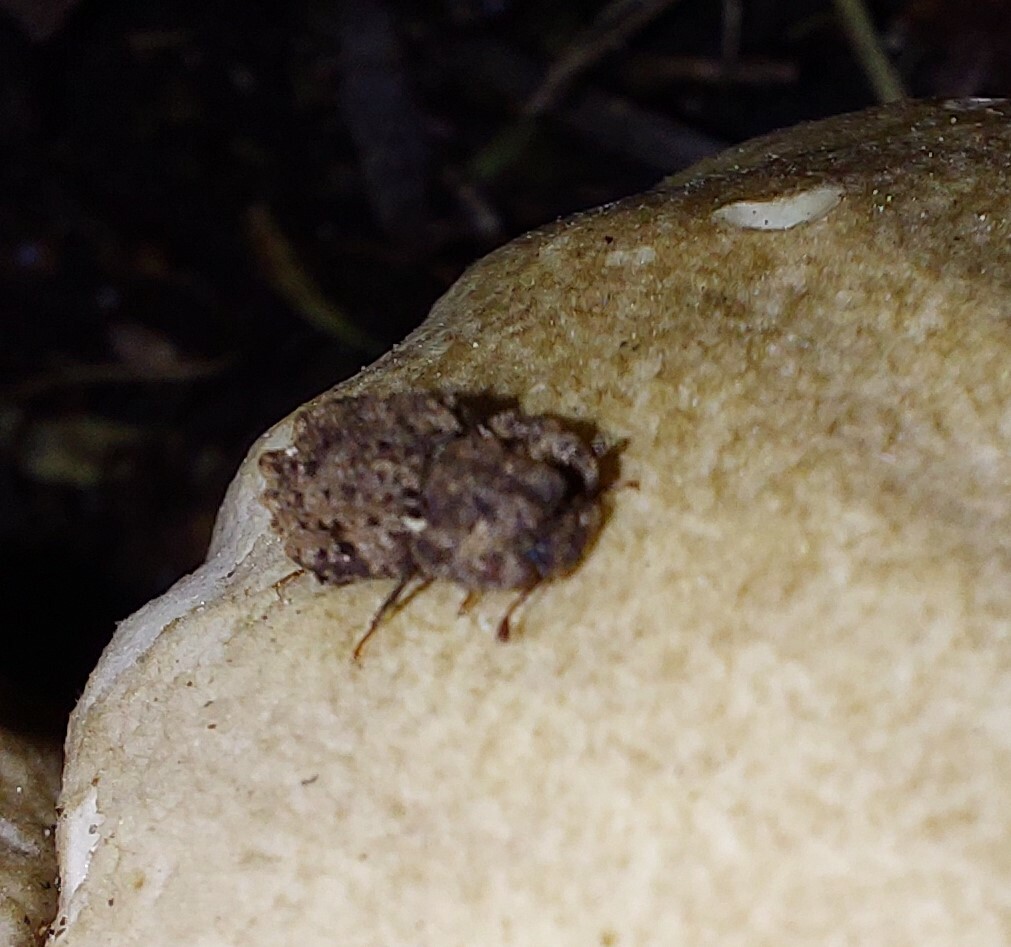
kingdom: Animalia
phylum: Arthropoda
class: Insecta
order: Coleoptera
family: Zopheridae
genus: Pristoderus
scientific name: Pristoderus
